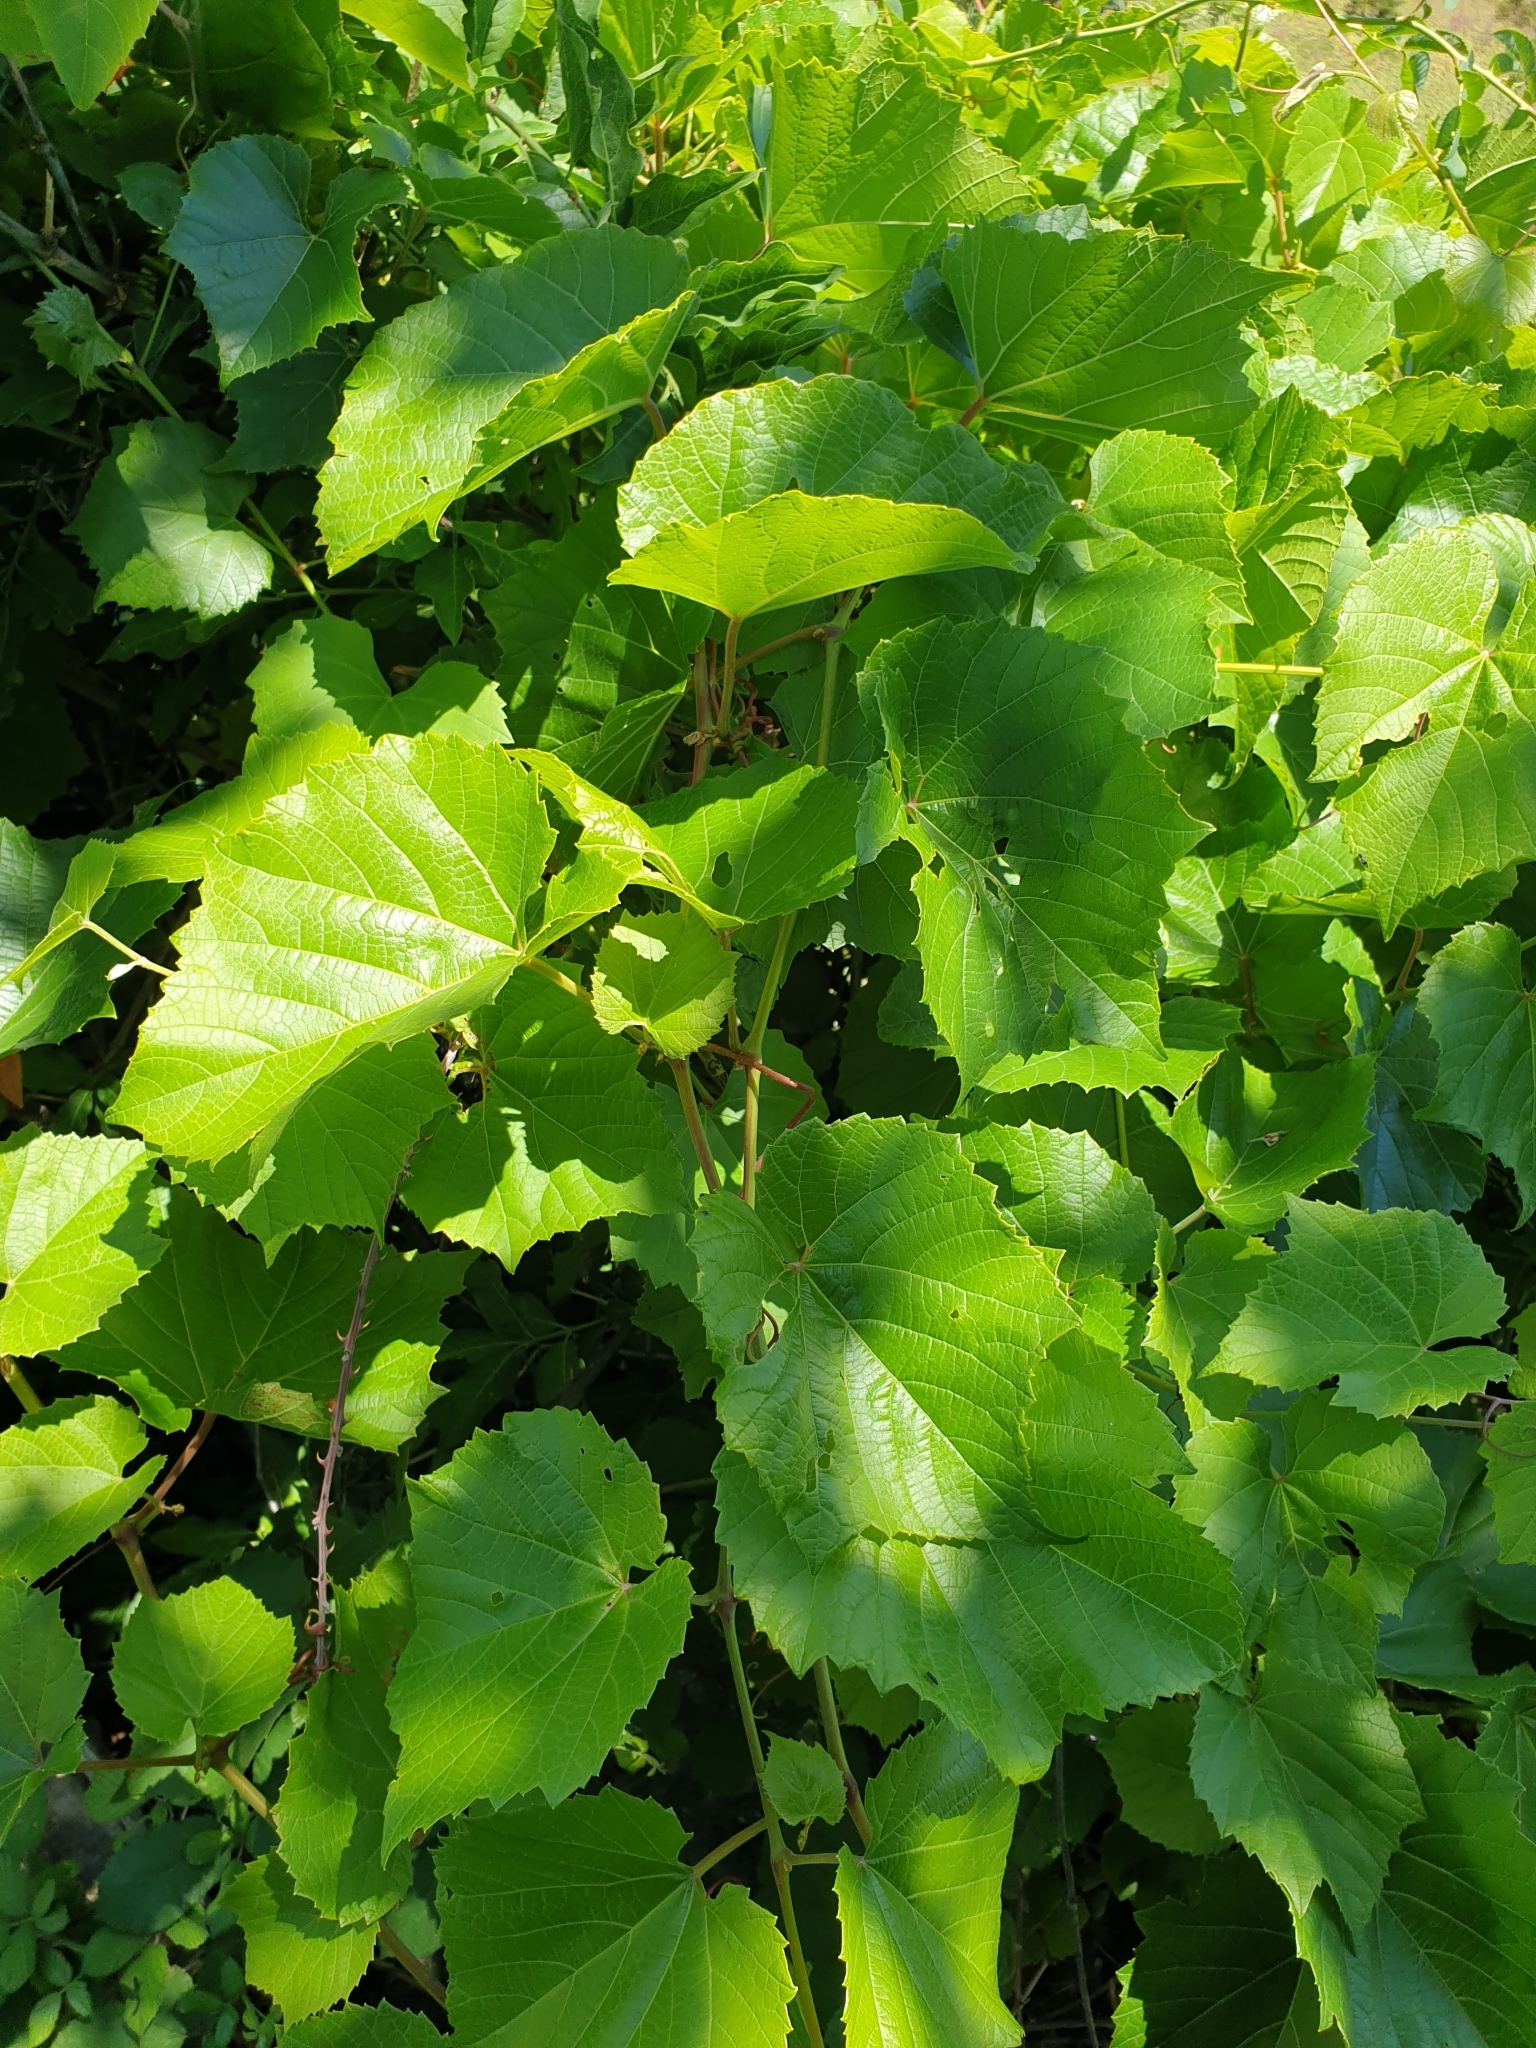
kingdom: Plantae
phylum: Tracheophyta
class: Magnoliopsida
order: Vitales
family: Vitaceae
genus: Vitis
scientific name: Vitis vinifera
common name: Grape-vine
